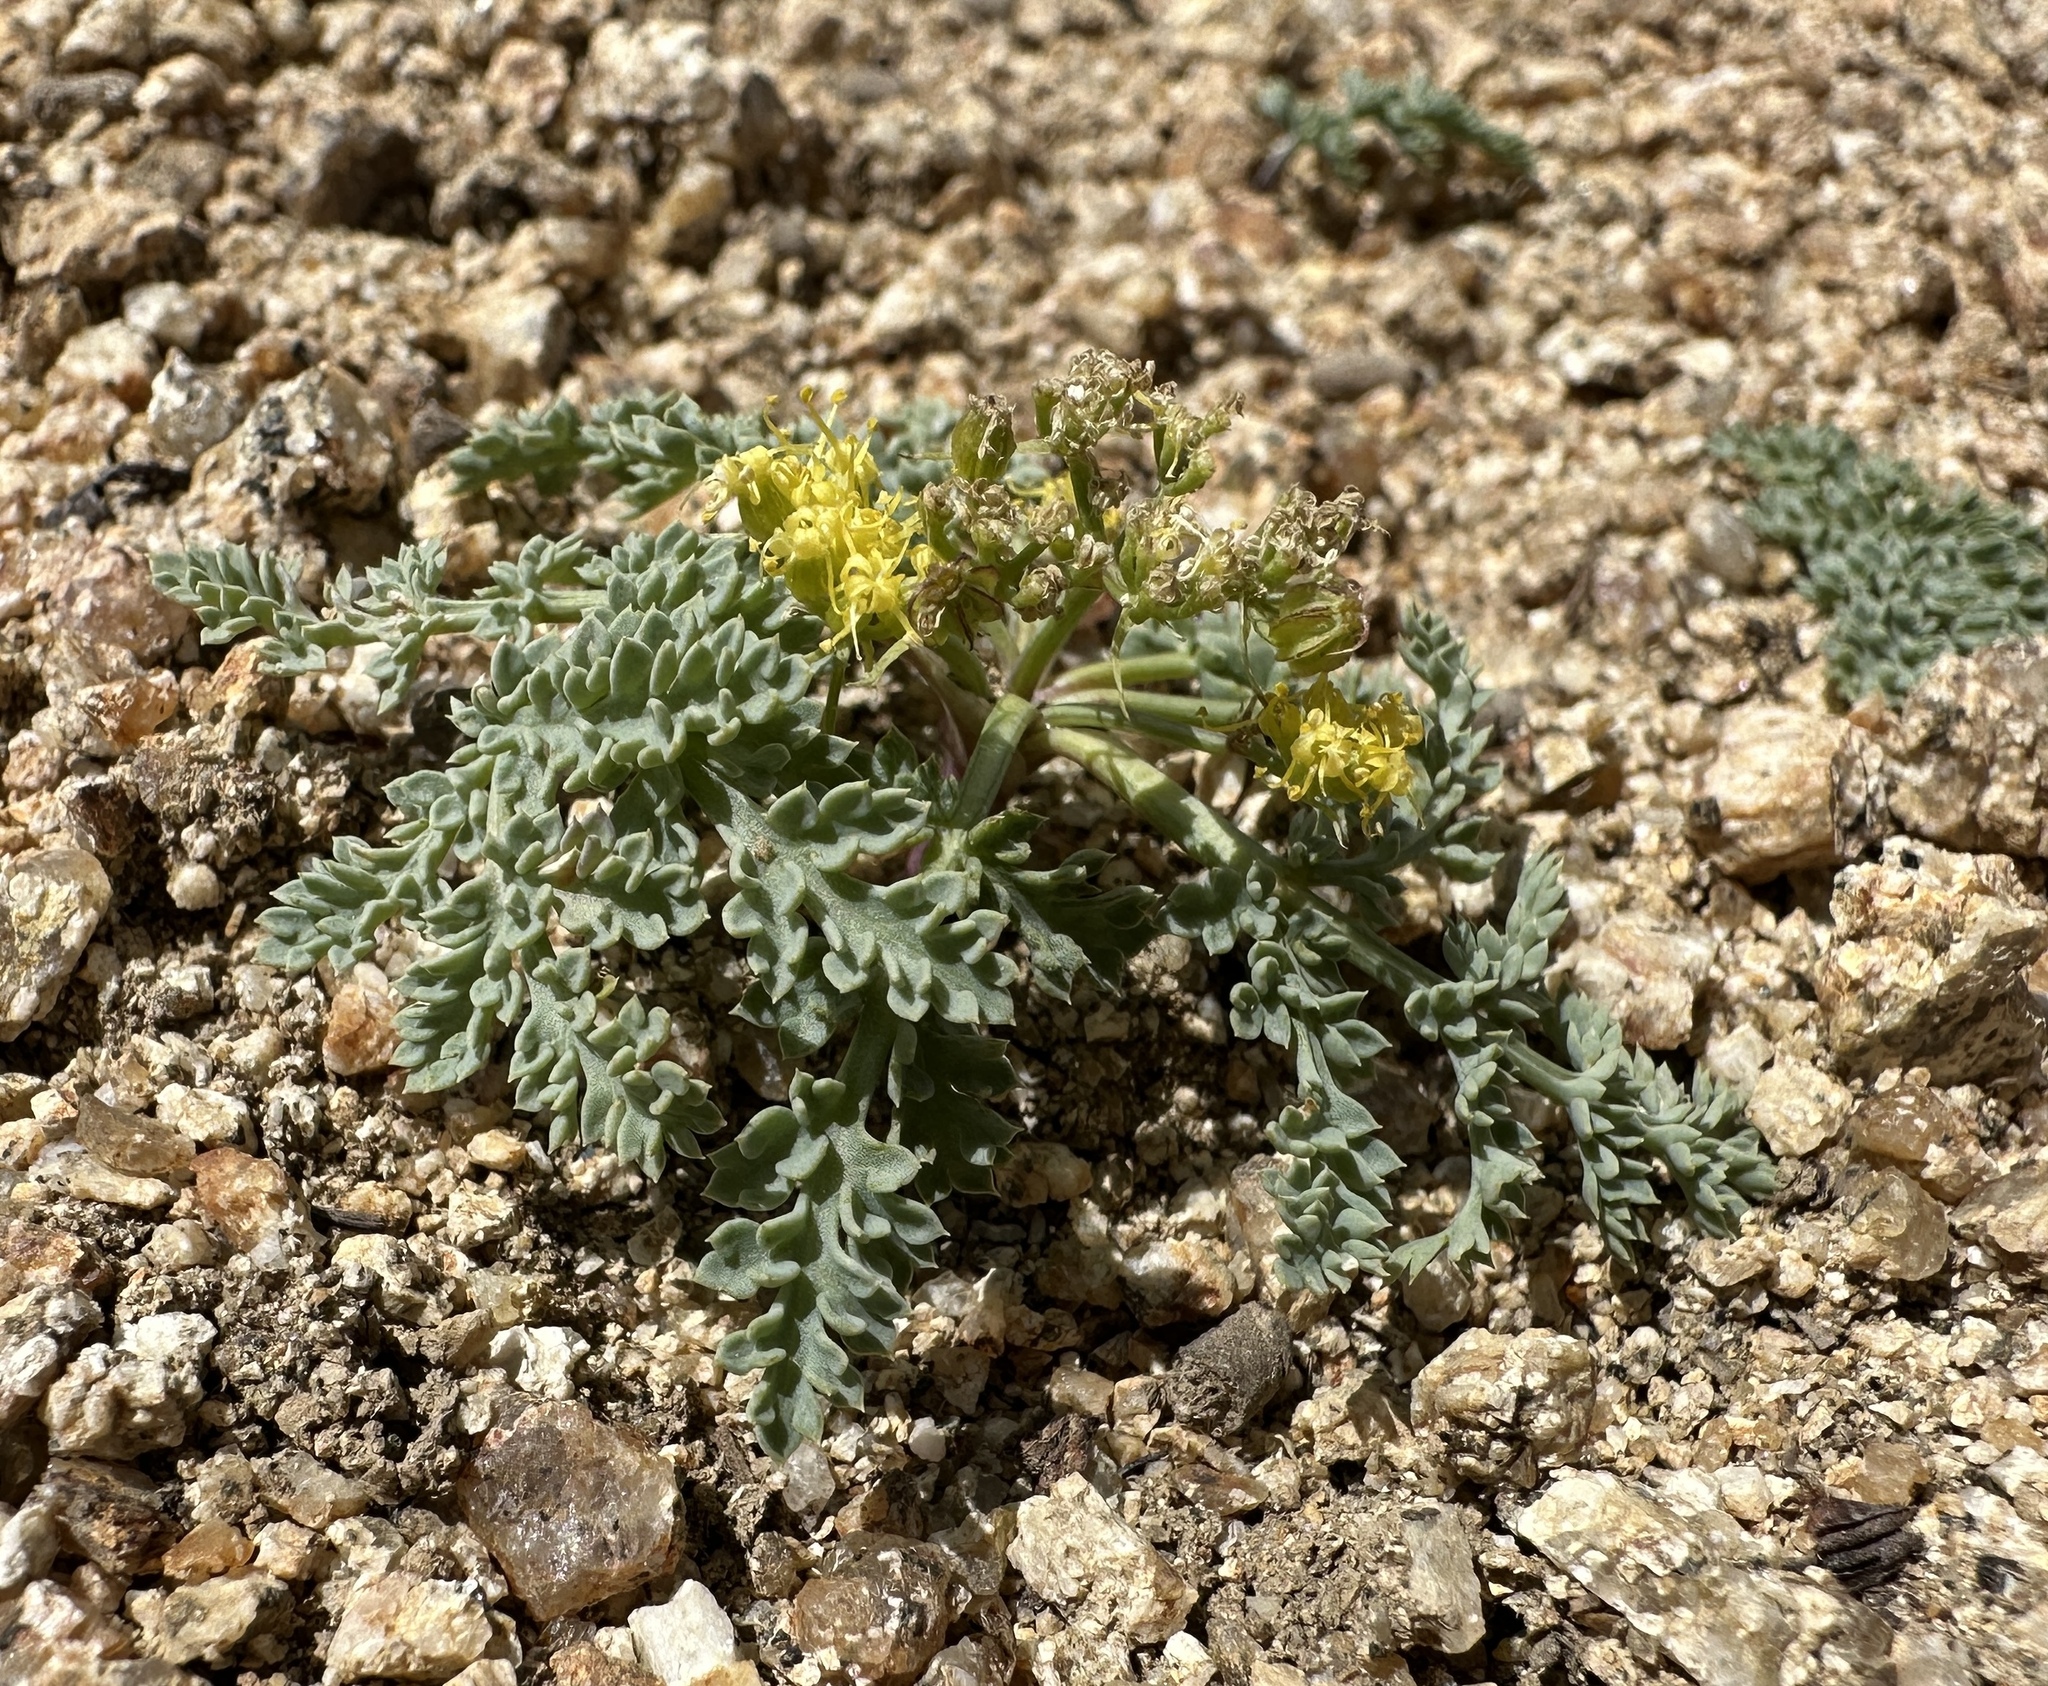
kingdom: Plantae
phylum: Tracheophyta
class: Magnoliopsida
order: Apiales
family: Apiaceae
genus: Aulospermum
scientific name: Aulospermum glaucum
